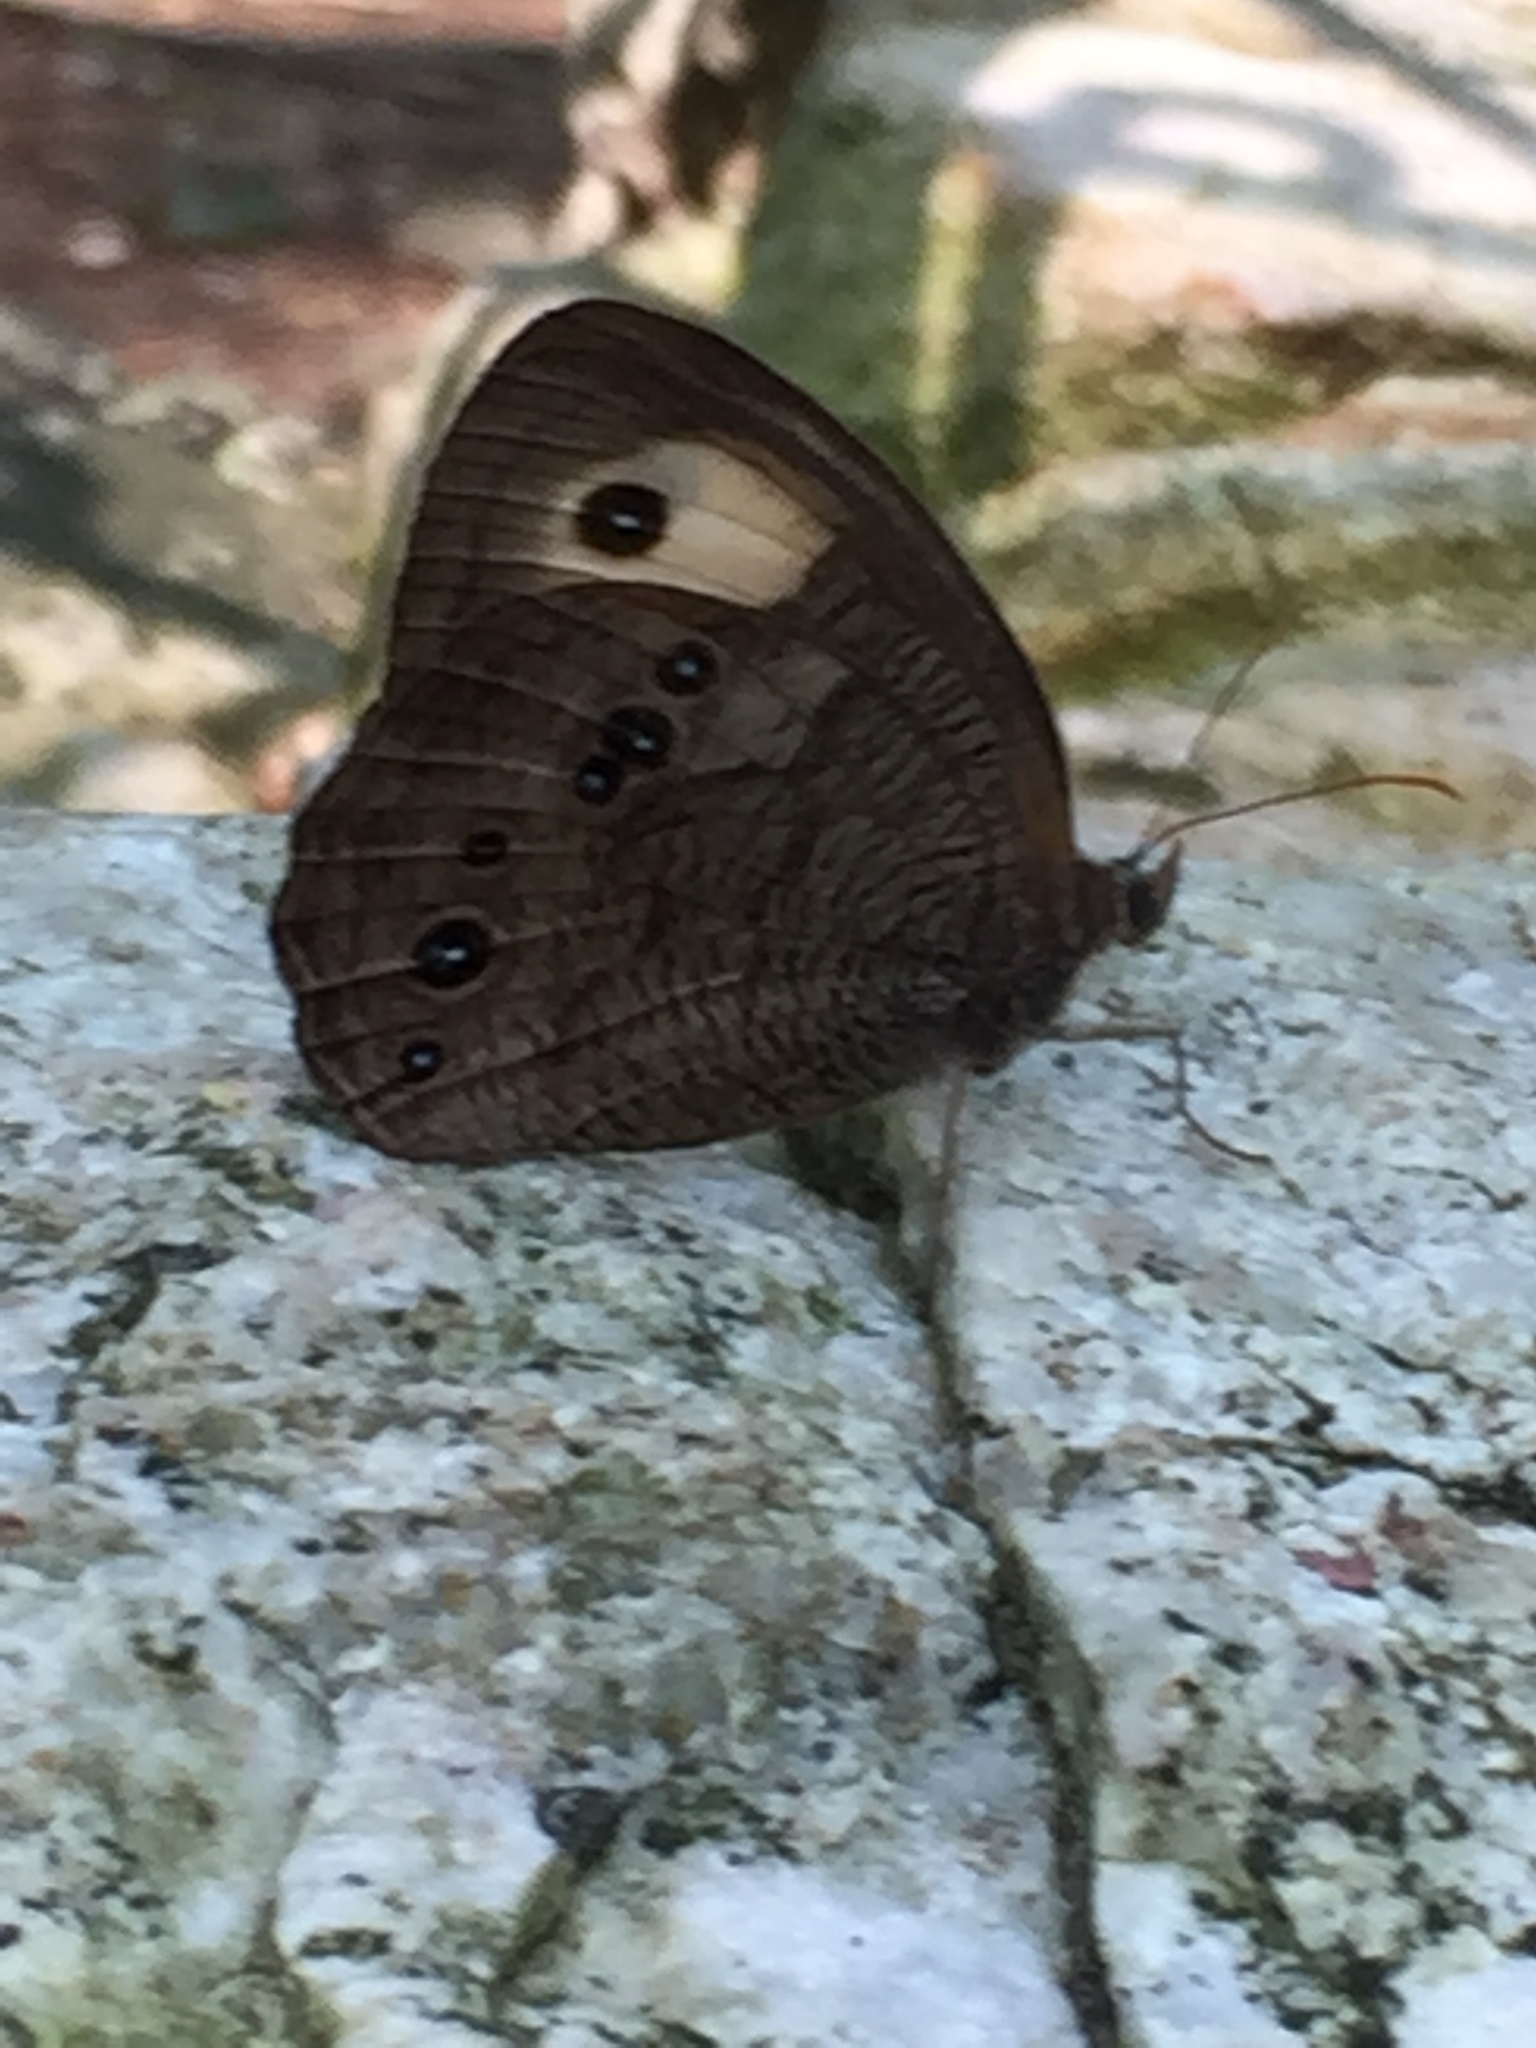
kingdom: Animalia
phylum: Arthropoda
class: Insecta
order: Lepidoptera
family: Nymphalidae
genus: Cercyonis
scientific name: Cercyonis pegala
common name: Common wood-nymph
